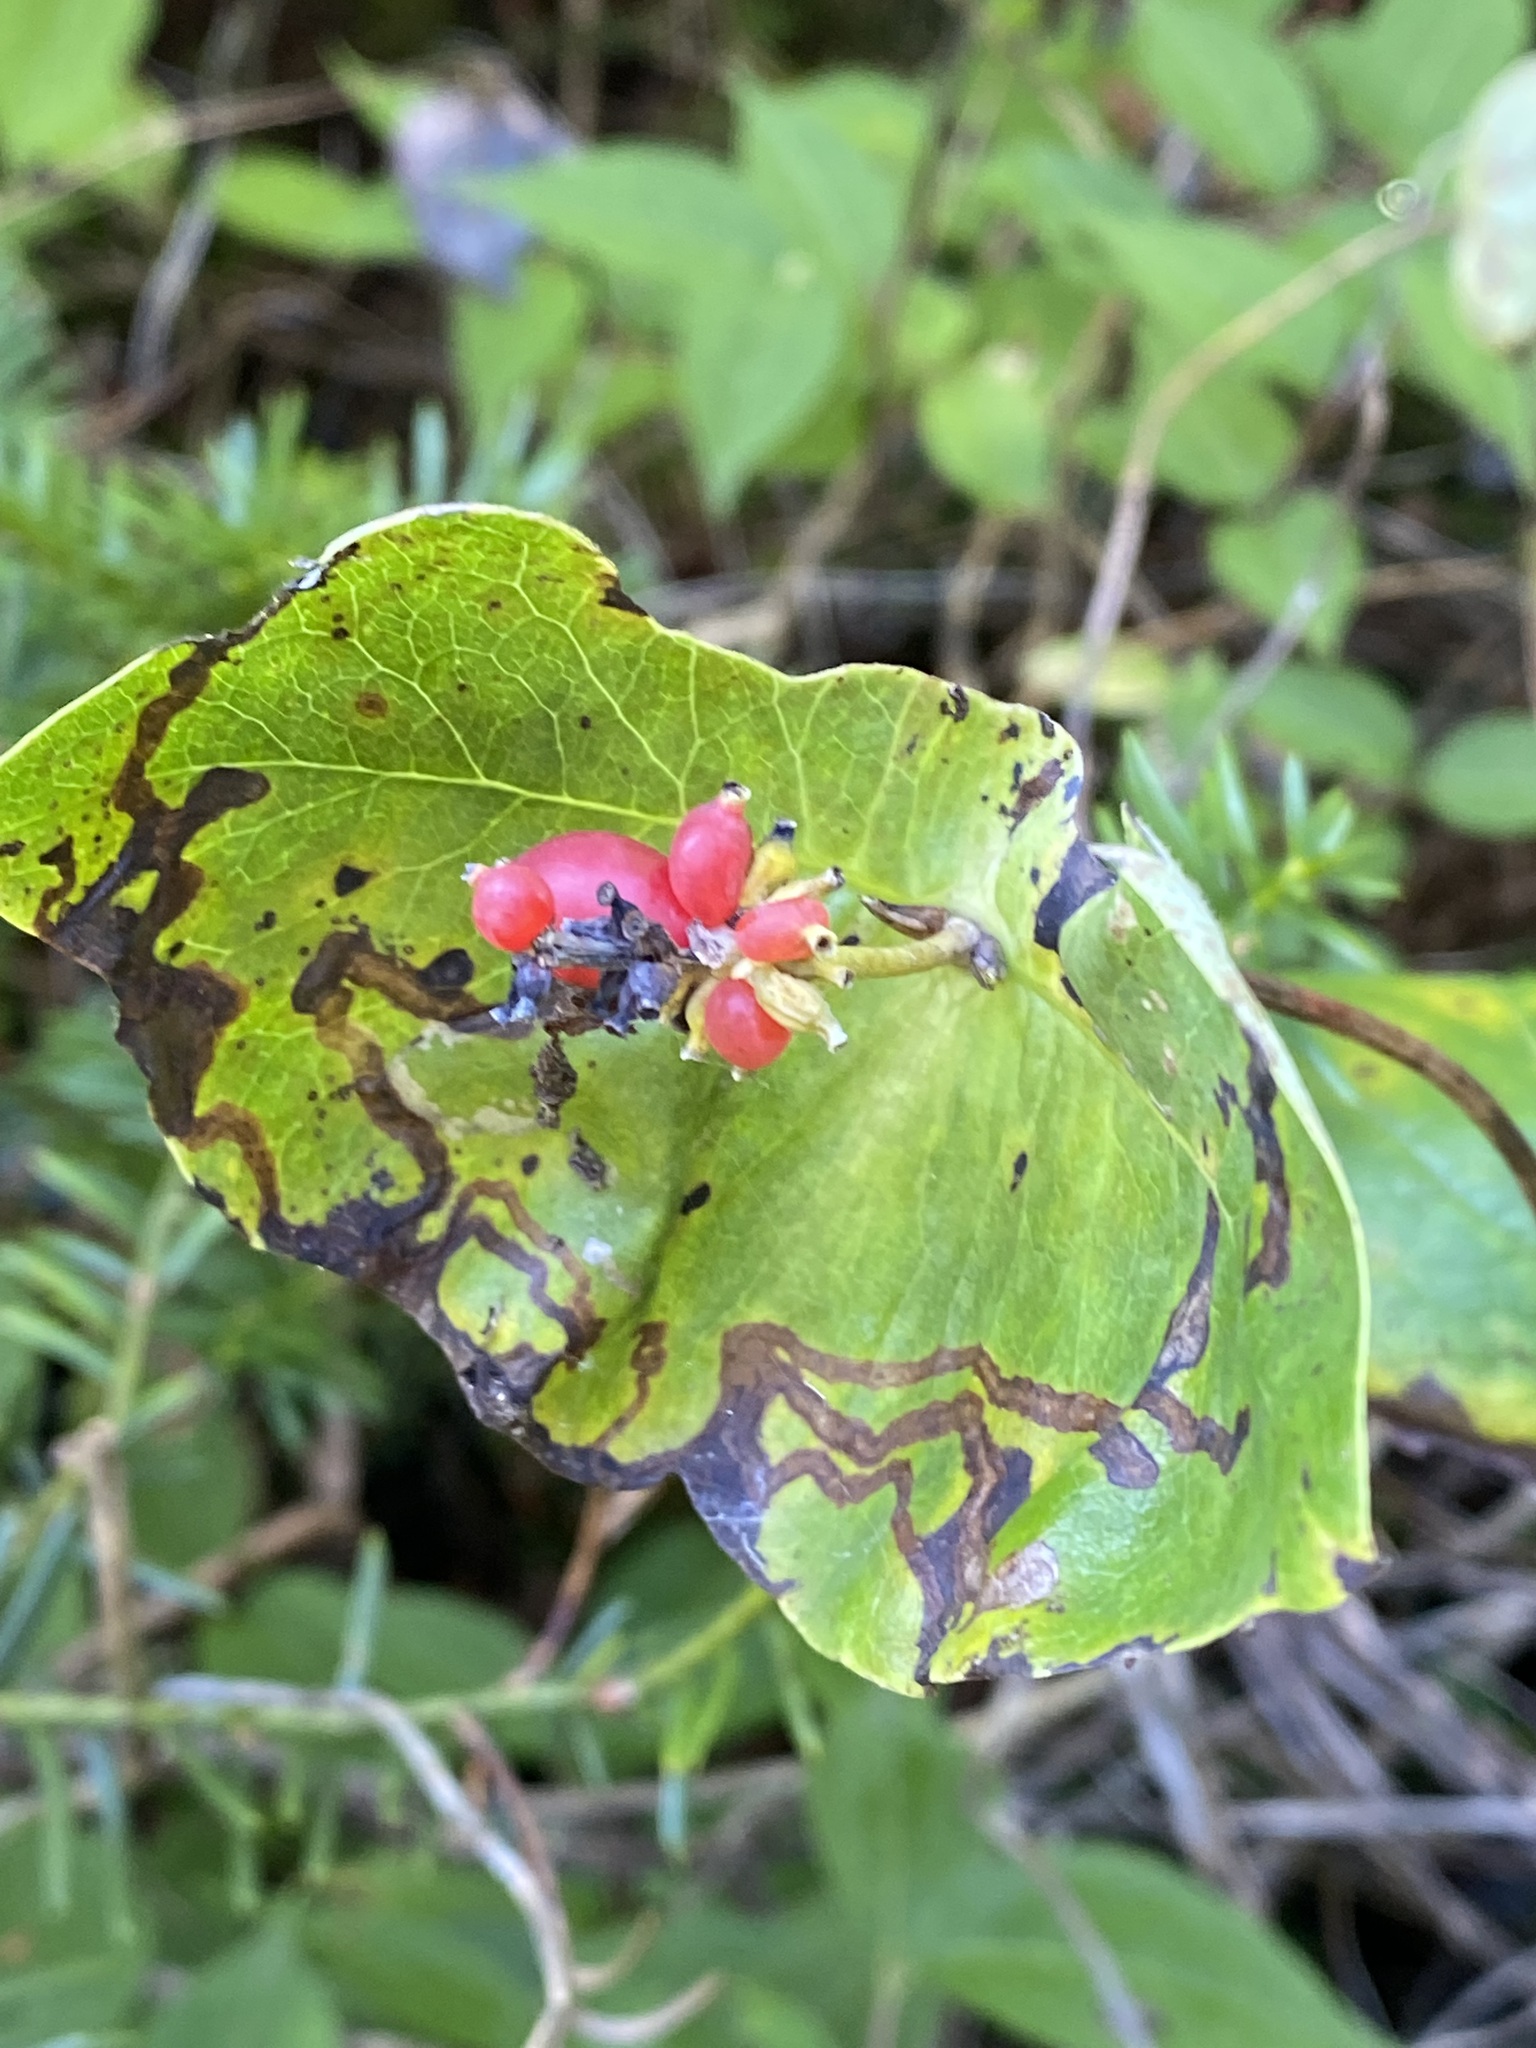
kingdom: Plantae
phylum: Tracheophyta
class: Magnoliopsida
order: Dipsacales
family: Caprifoliaceae
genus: Lonicera
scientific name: Lonicera dioica
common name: Limber honeysuckle
